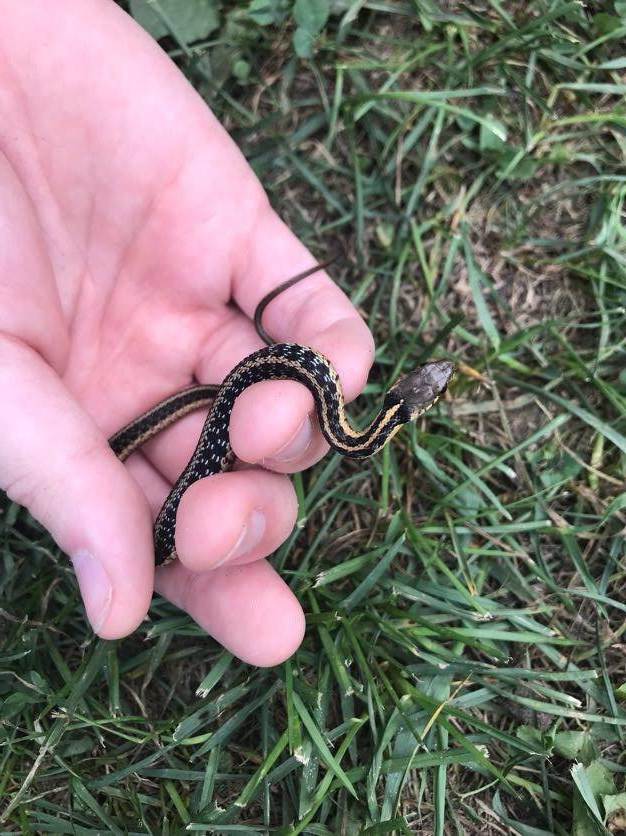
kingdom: Animalia
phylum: Chordata
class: Squamata
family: Colubridae
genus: Thamnophis
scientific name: Thamnophis sirtalis
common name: Common garter snake
